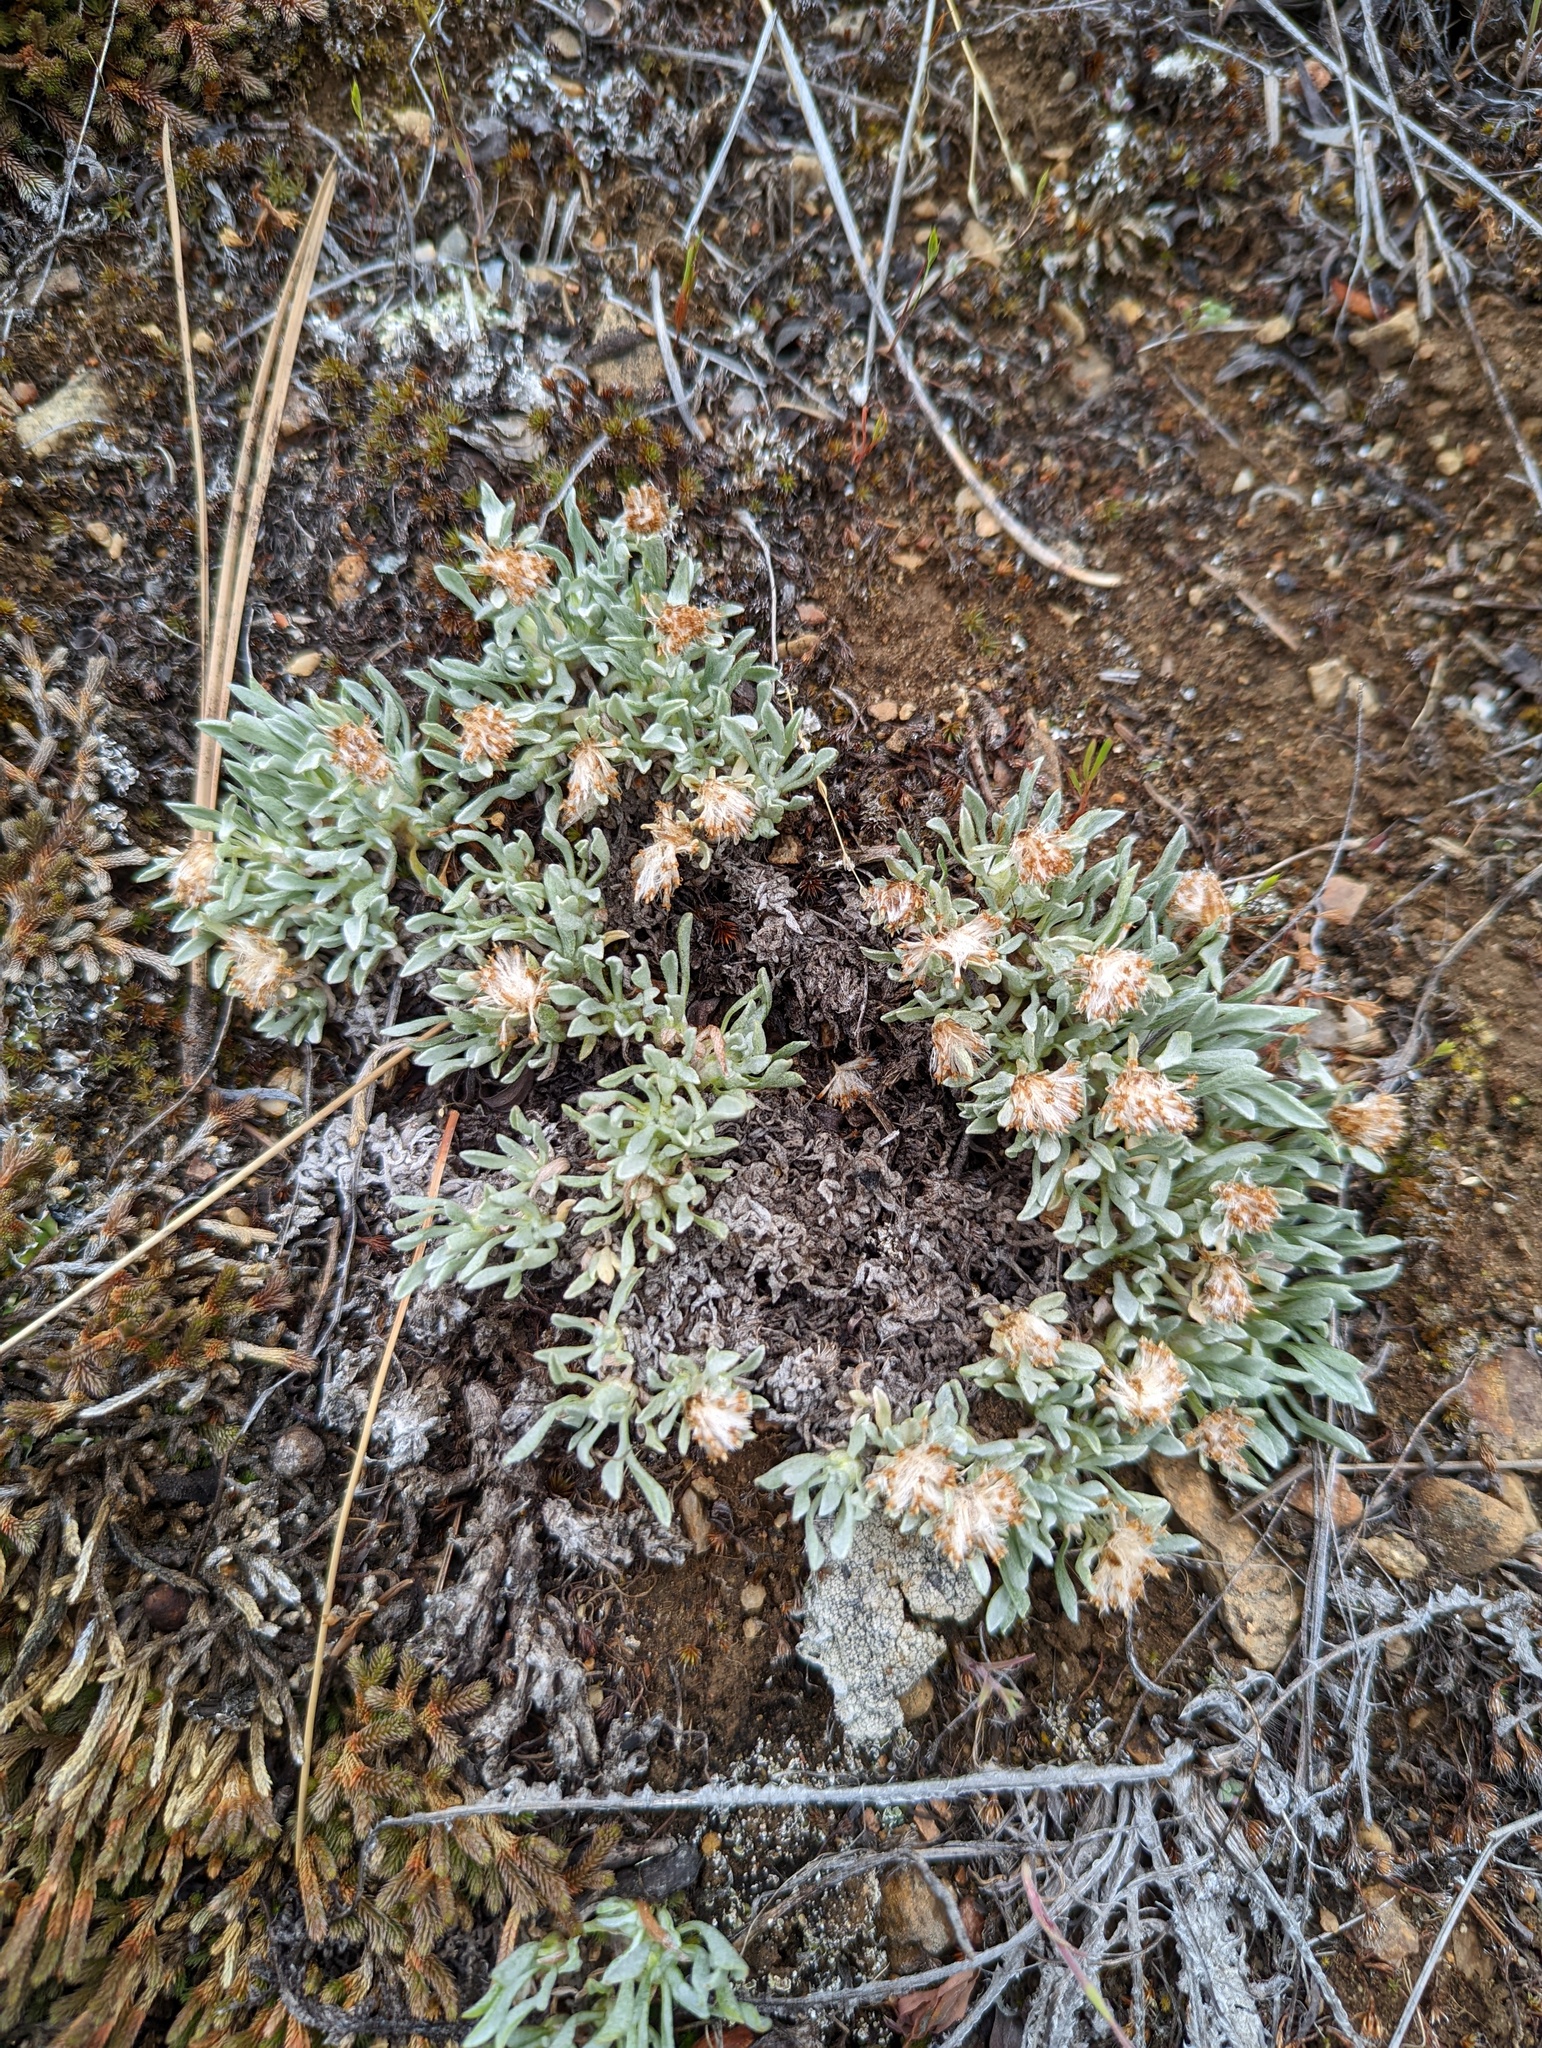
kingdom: Plantae
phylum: Tracheophyta
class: Magnoliopsida
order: Asterales
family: Asteraceae
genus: Antennaria
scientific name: Antennaria dimorpha
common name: Cushion pussytoes
